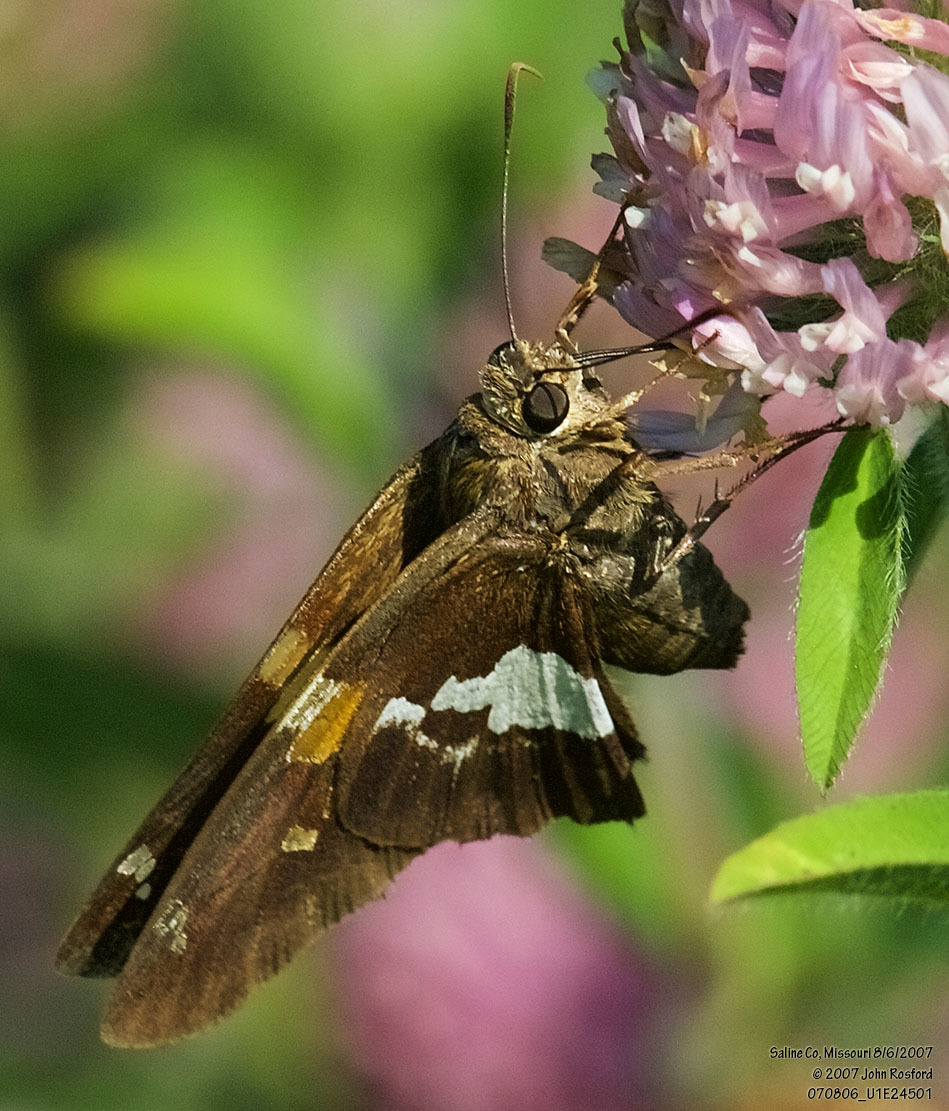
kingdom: Animalia
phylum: Arthropoda
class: Insecta
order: Lepidoptera
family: Hesperiidae
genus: Epargyreus
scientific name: Epargyreus clarus
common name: Silver-spotted skipper
